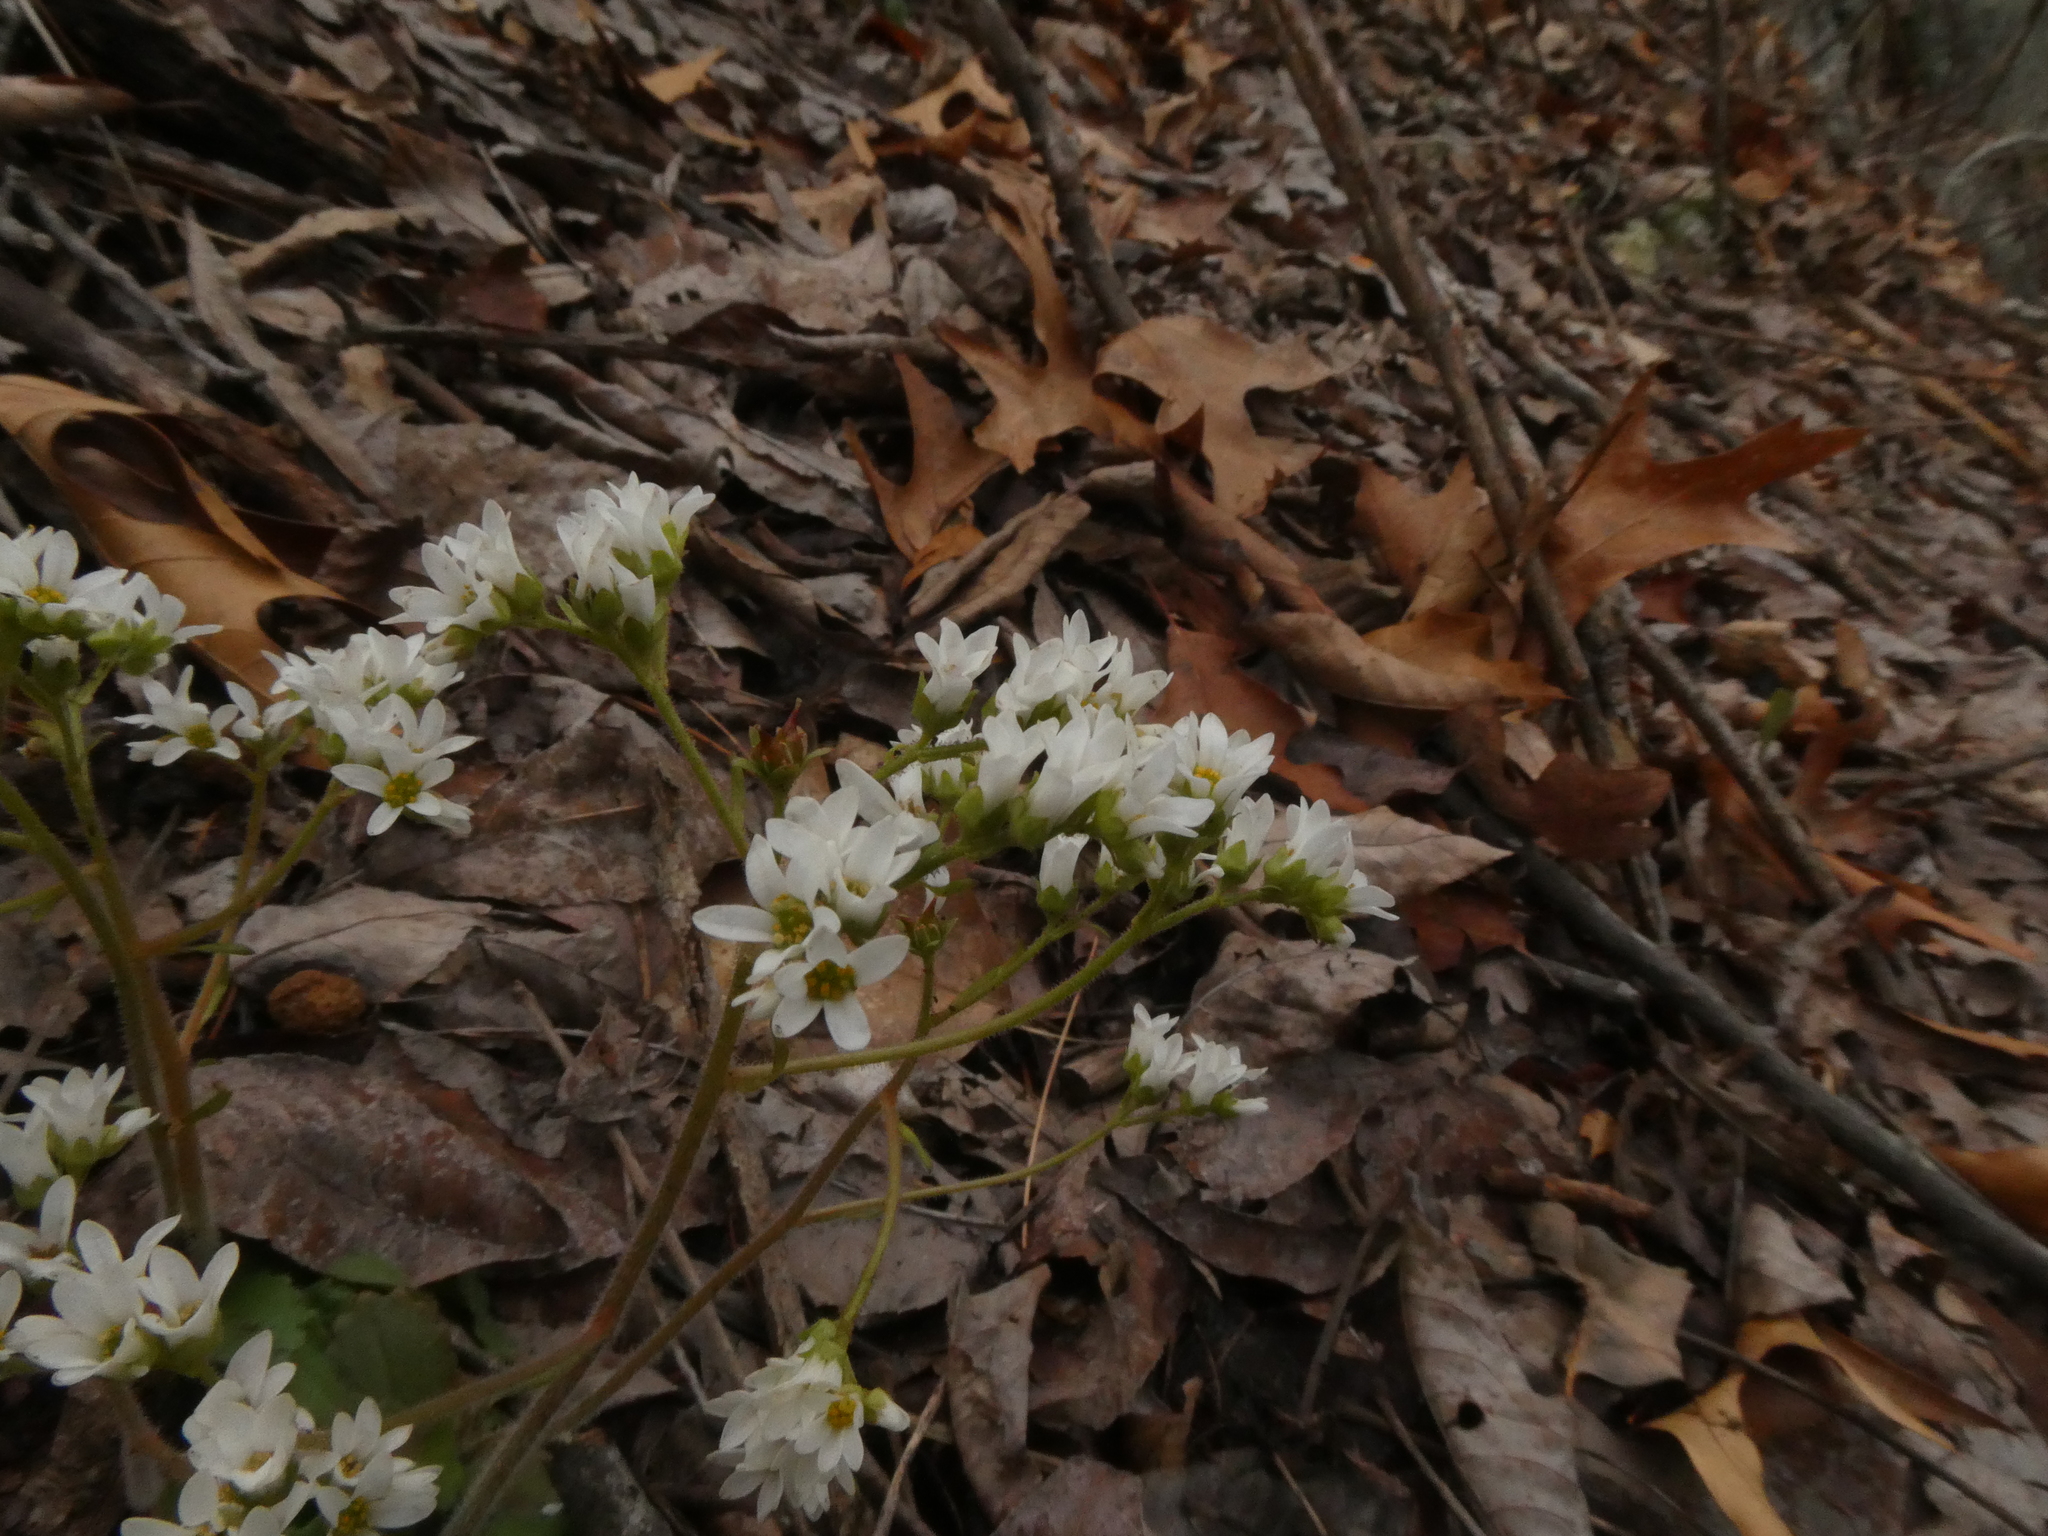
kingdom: Plantae
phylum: Tracheophyta
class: Magnoliopsida
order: Saxifragales
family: Saxifragaceae
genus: Micranthes
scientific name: Micranthes virginiensis
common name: Early saxifrage
